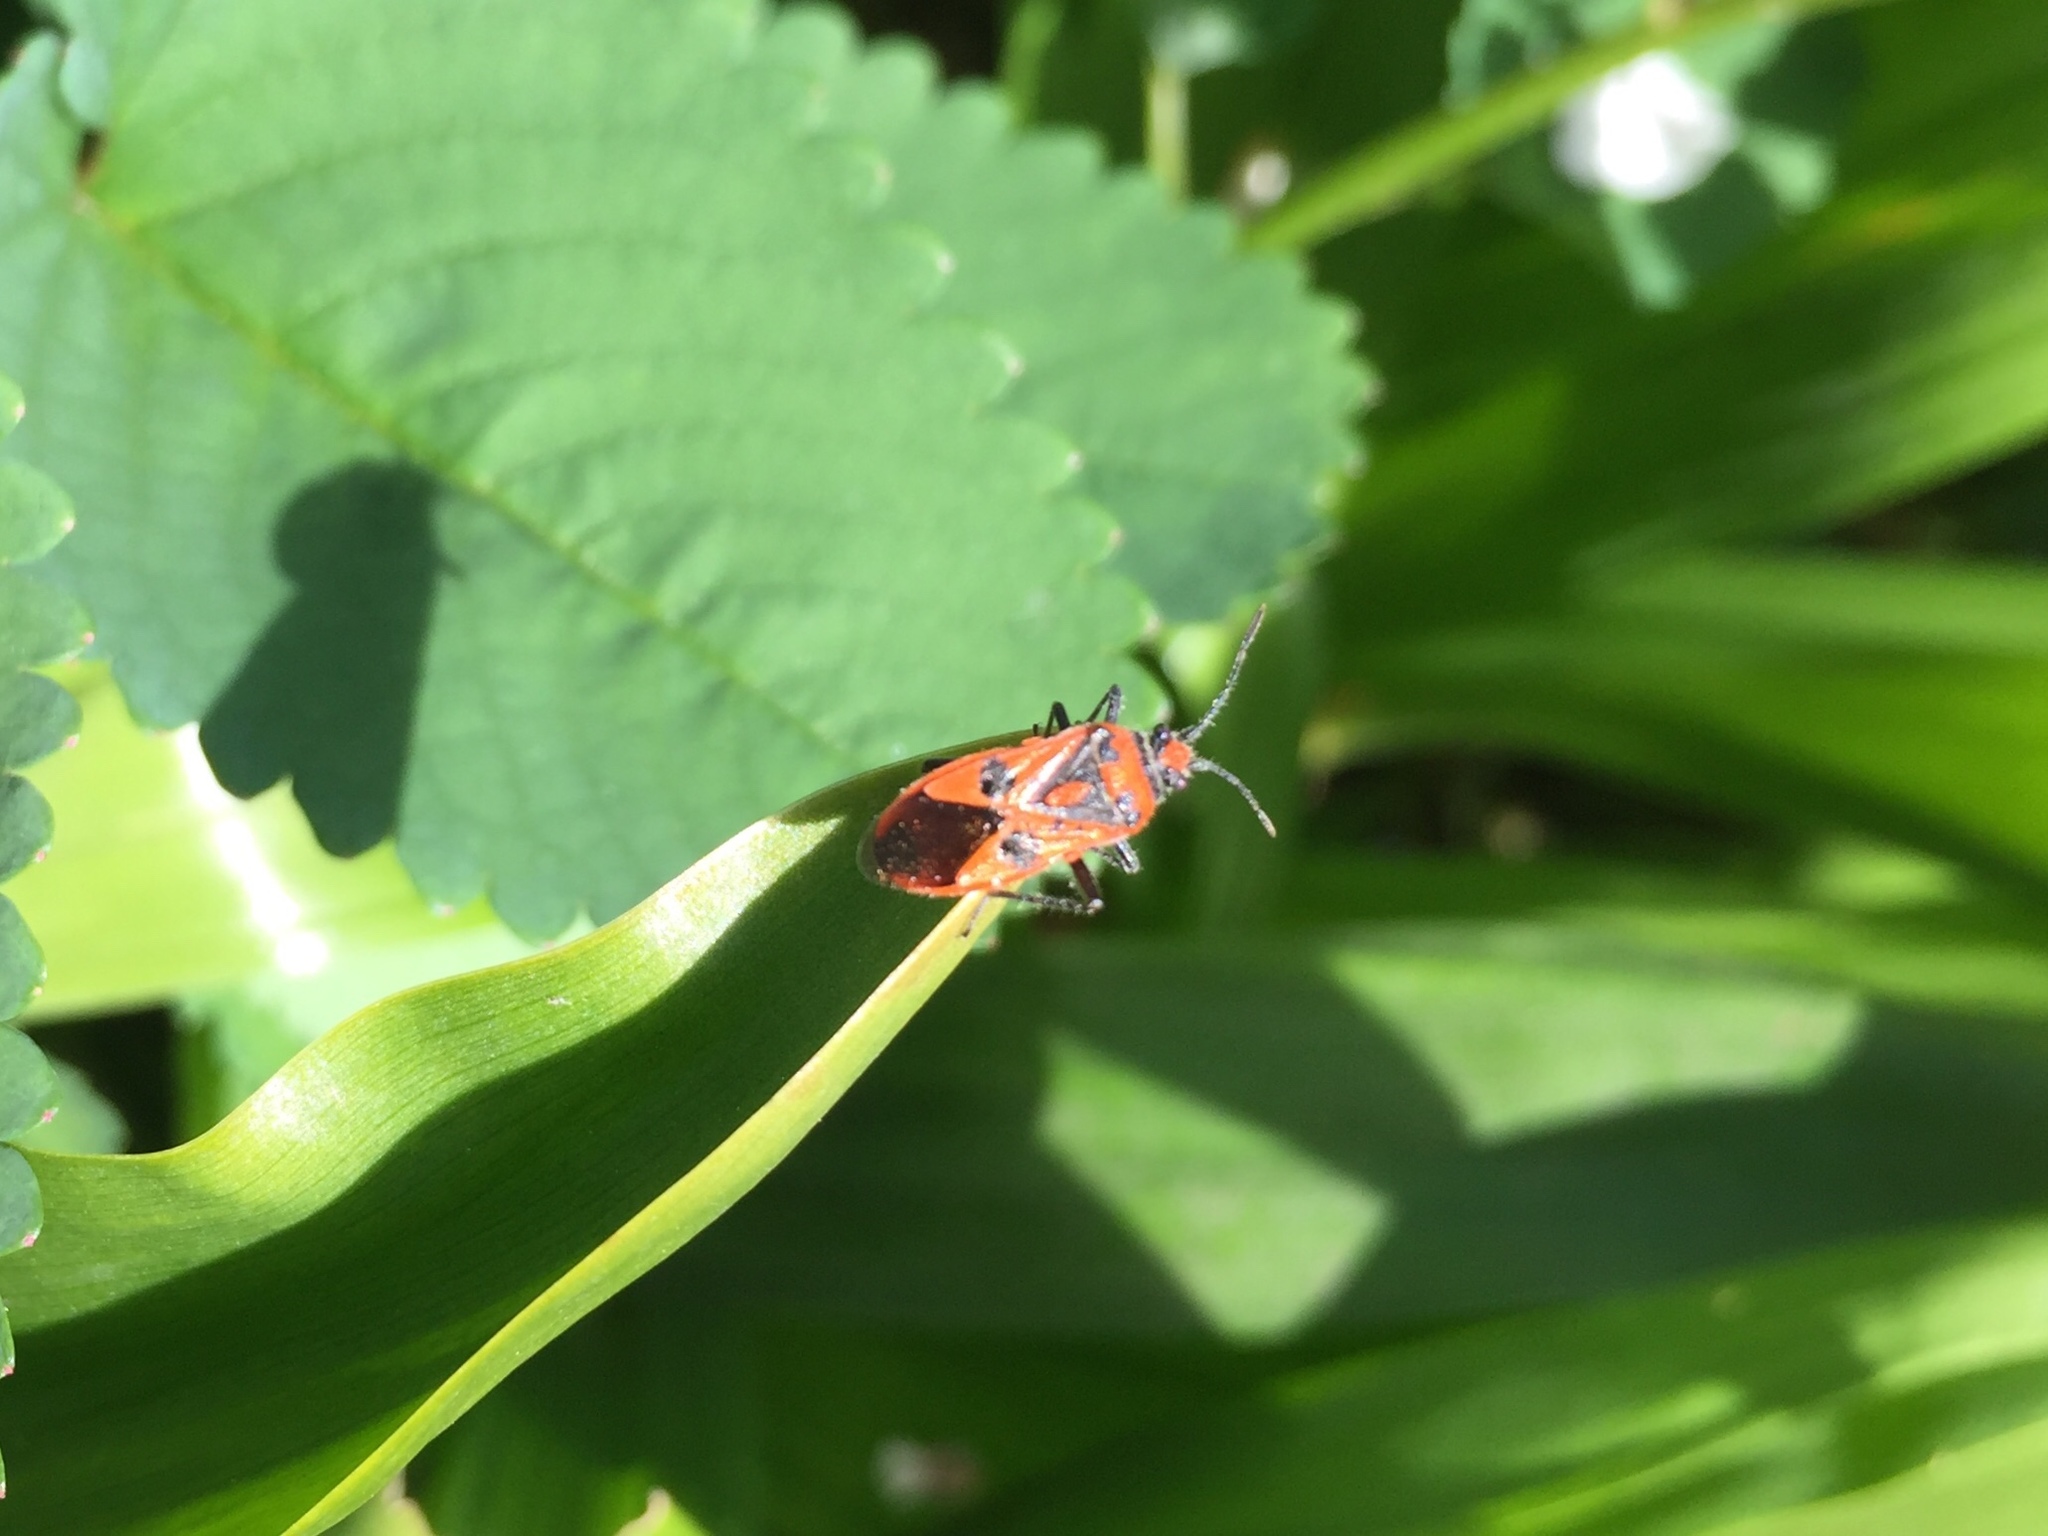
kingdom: Animalia
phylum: Arthropoda
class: Insecta
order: Hemiptera
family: Rhopalidae
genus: Corizus
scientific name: Corizus hyoscyami
